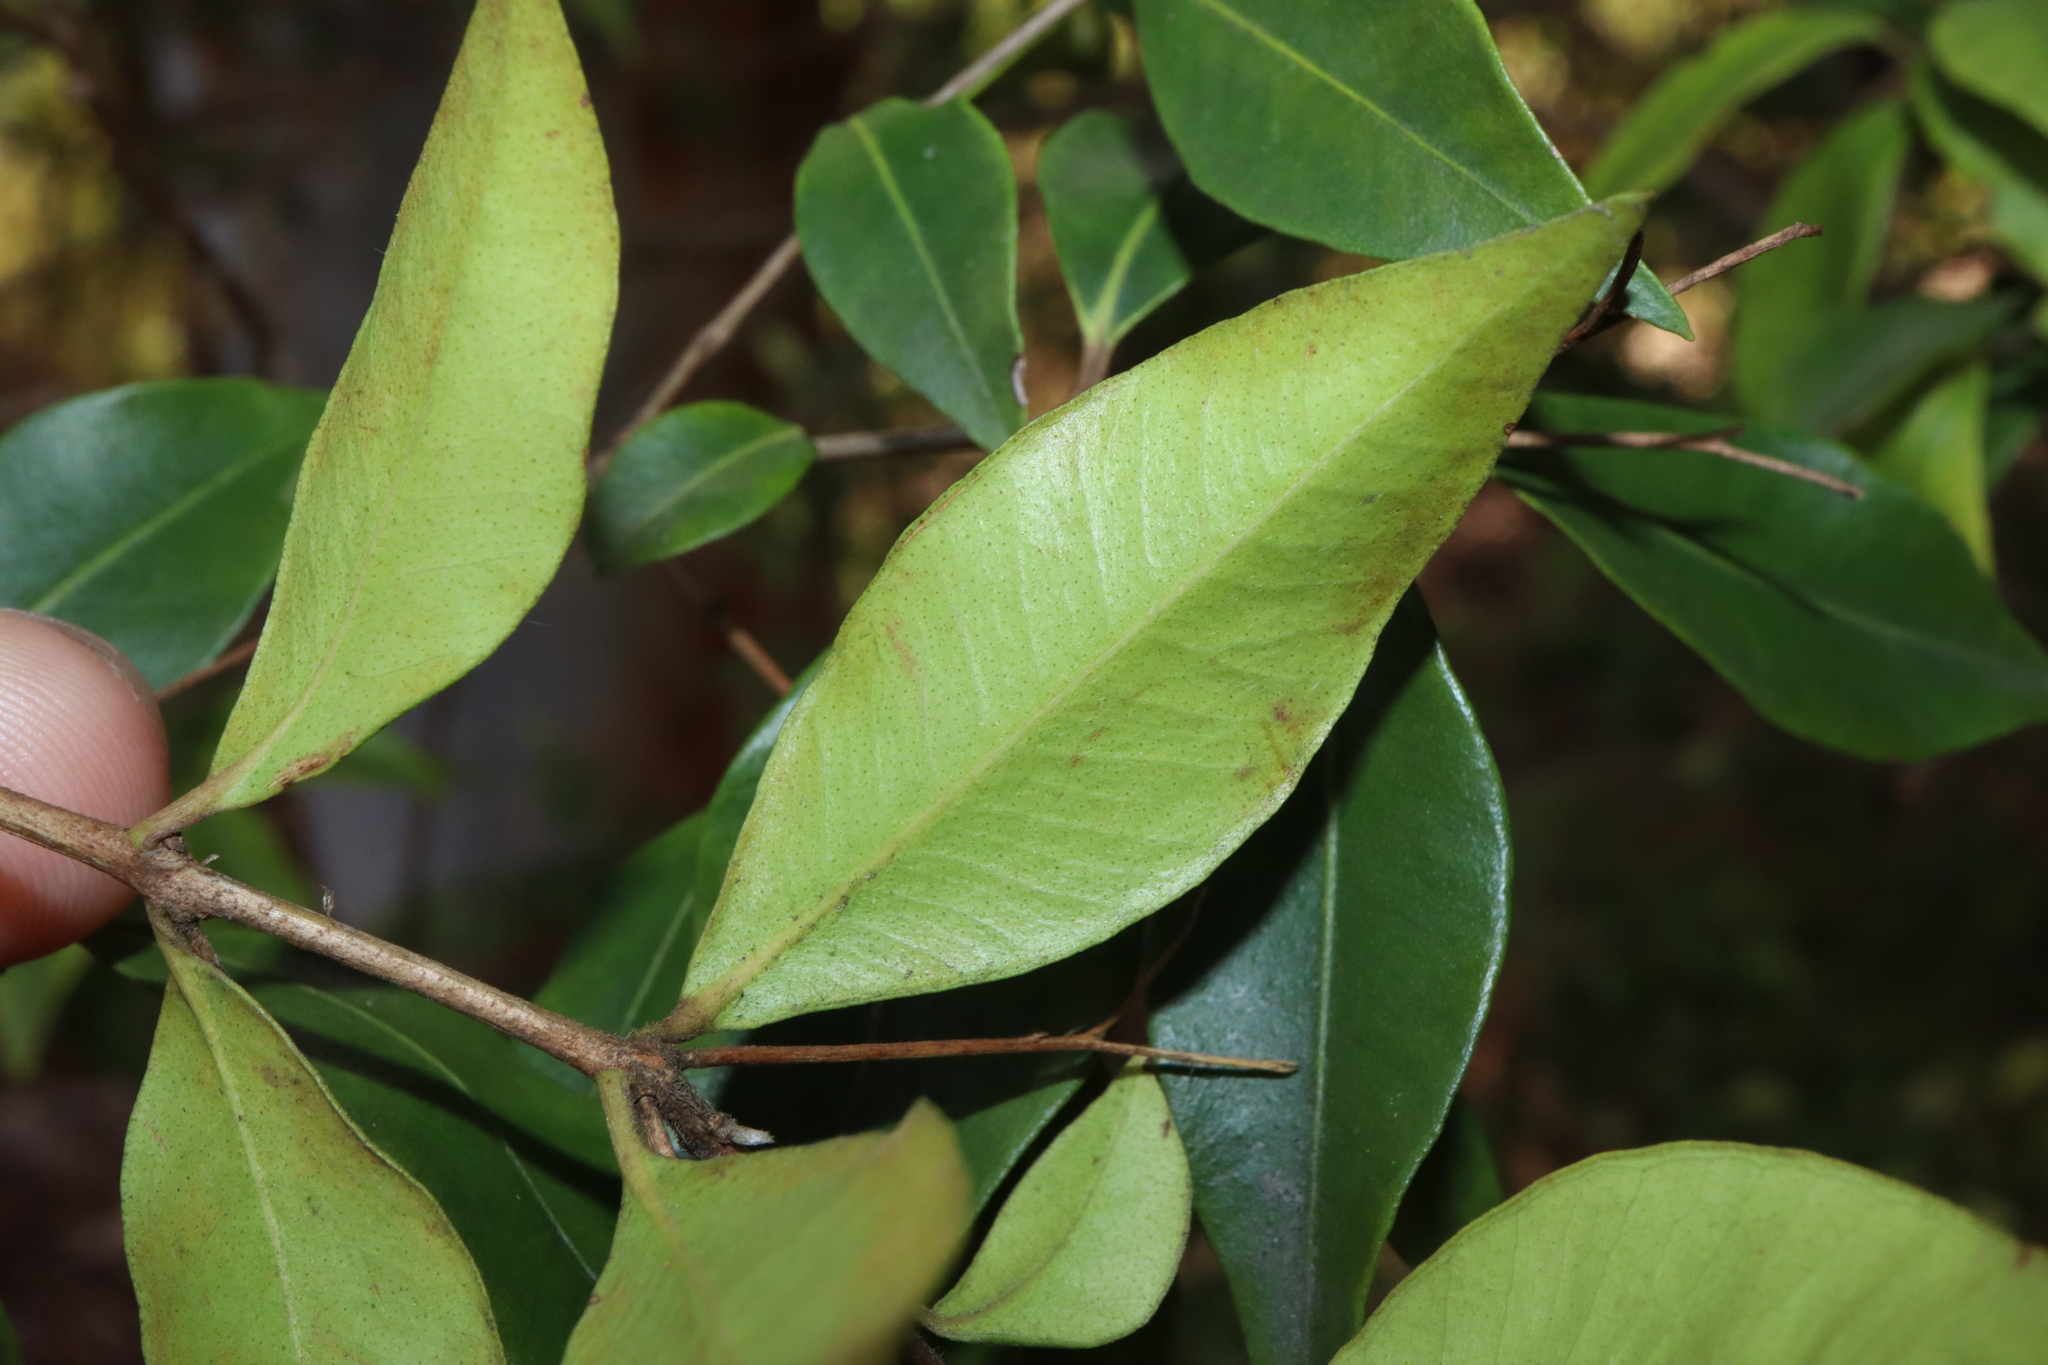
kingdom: Plantae
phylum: Tracheophyta
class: Magnoliopsida
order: Myrtales
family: Myrtaceae
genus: Backhousia
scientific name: Backhousia myrtifolia
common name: Carrol
